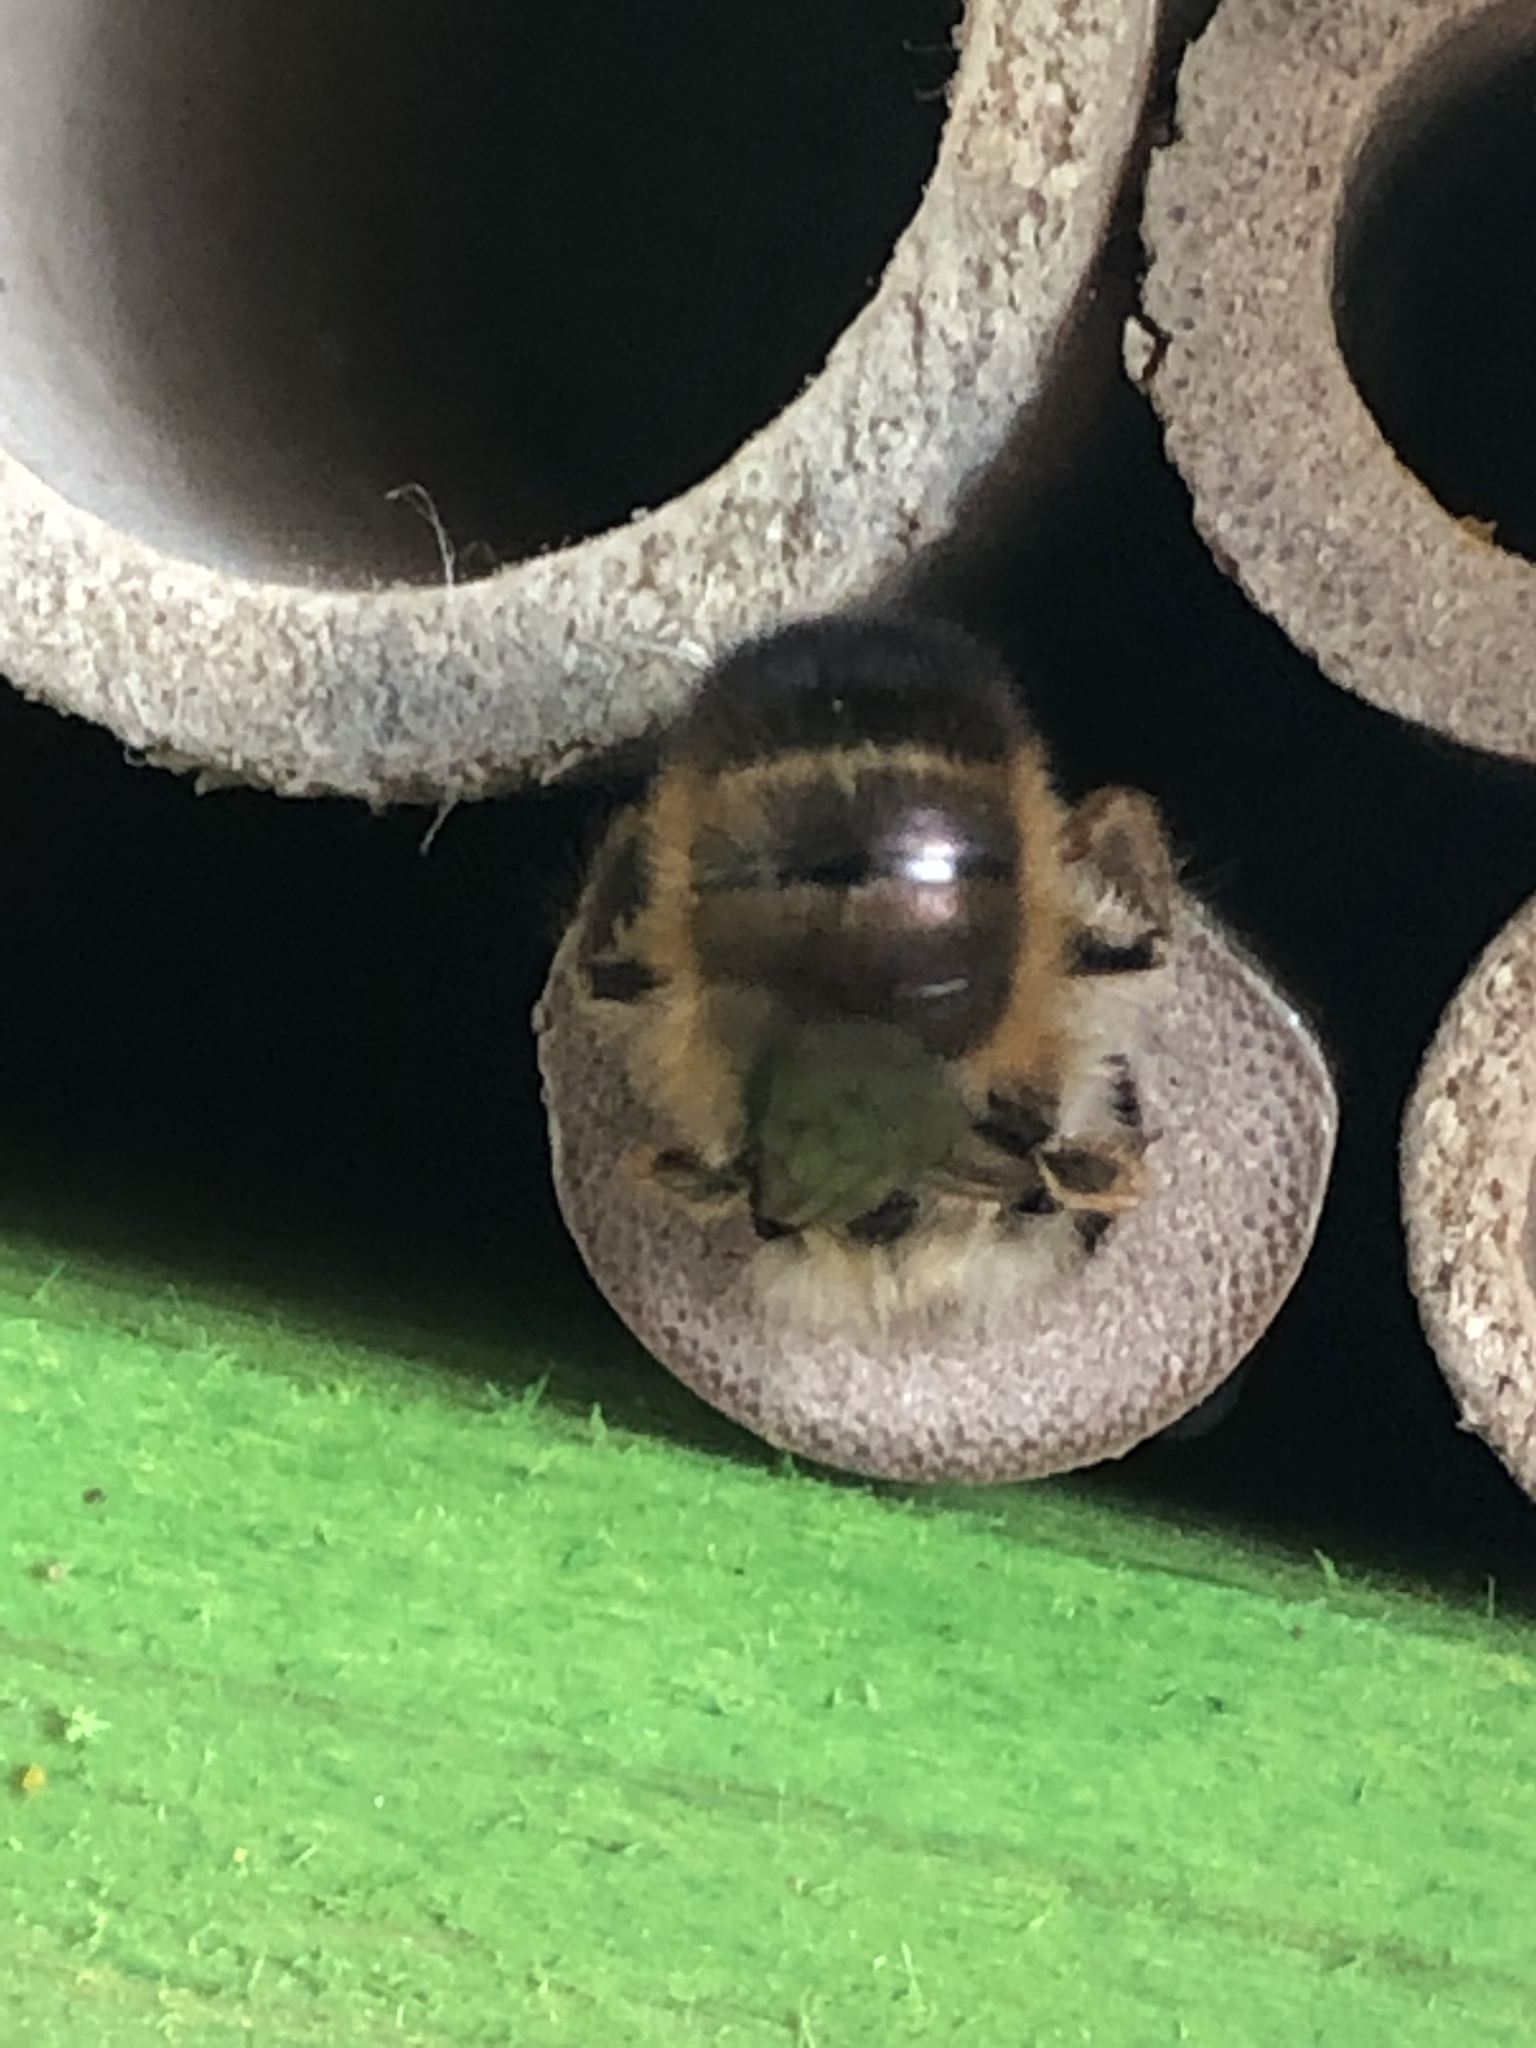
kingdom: Animalia
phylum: Arthropoda
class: Insecta
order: Hymenoptera
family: Megachilidae
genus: Osmia
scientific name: Osmia bicornis
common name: Red mason bee
